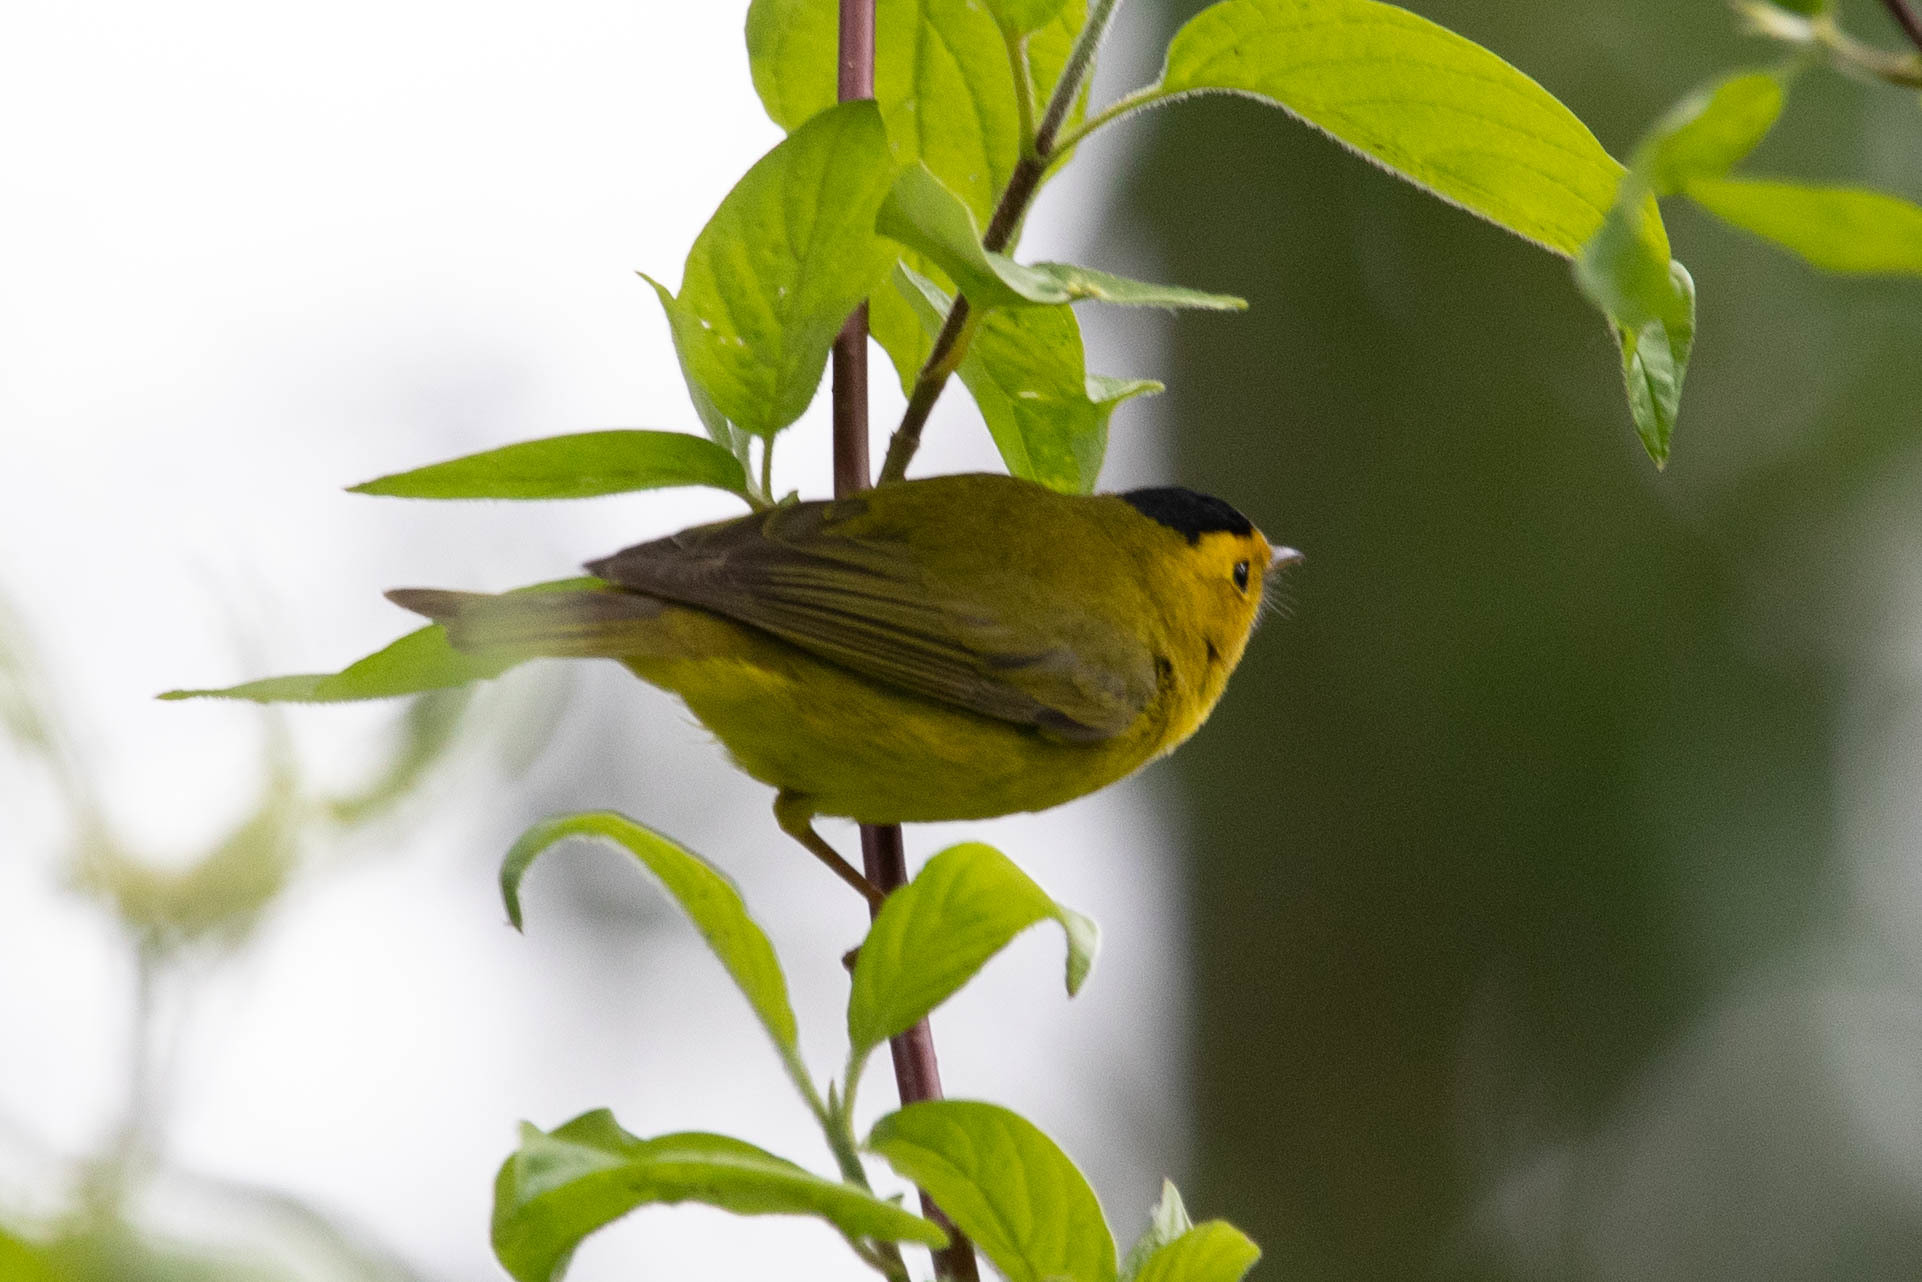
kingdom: Animalia
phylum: Chordata
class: Aves
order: Passeriformes
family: Parulidae
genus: Cardellina
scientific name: Cardellina pusilla
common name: Wilson's warbler
